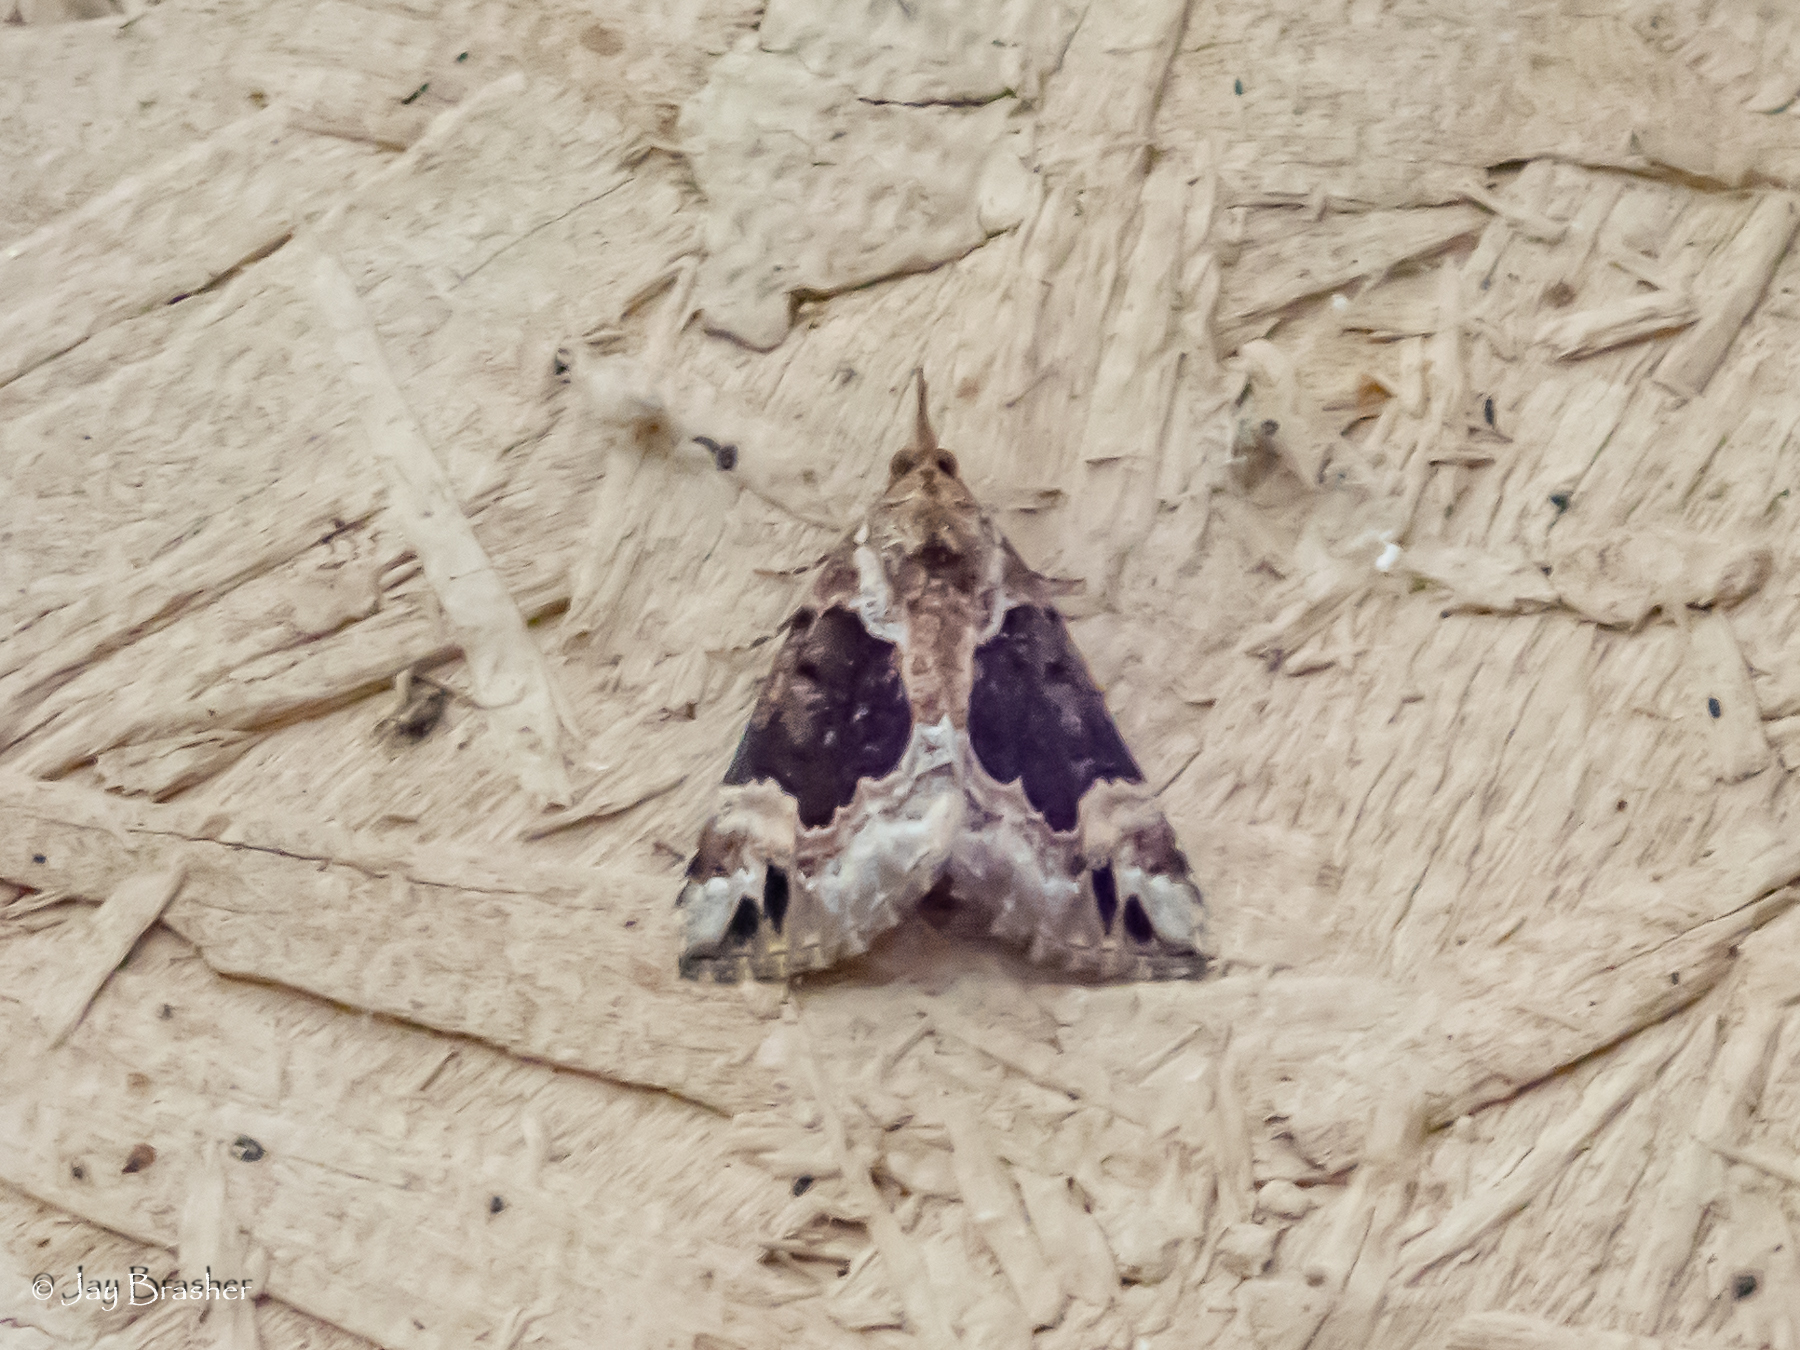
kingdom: Animalia
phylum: Arthropoda
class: Insecta
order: Lepidoptera
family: Erebidae
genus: Hypena
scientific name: Hypena palparia
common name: Mottled bomolocha moth
